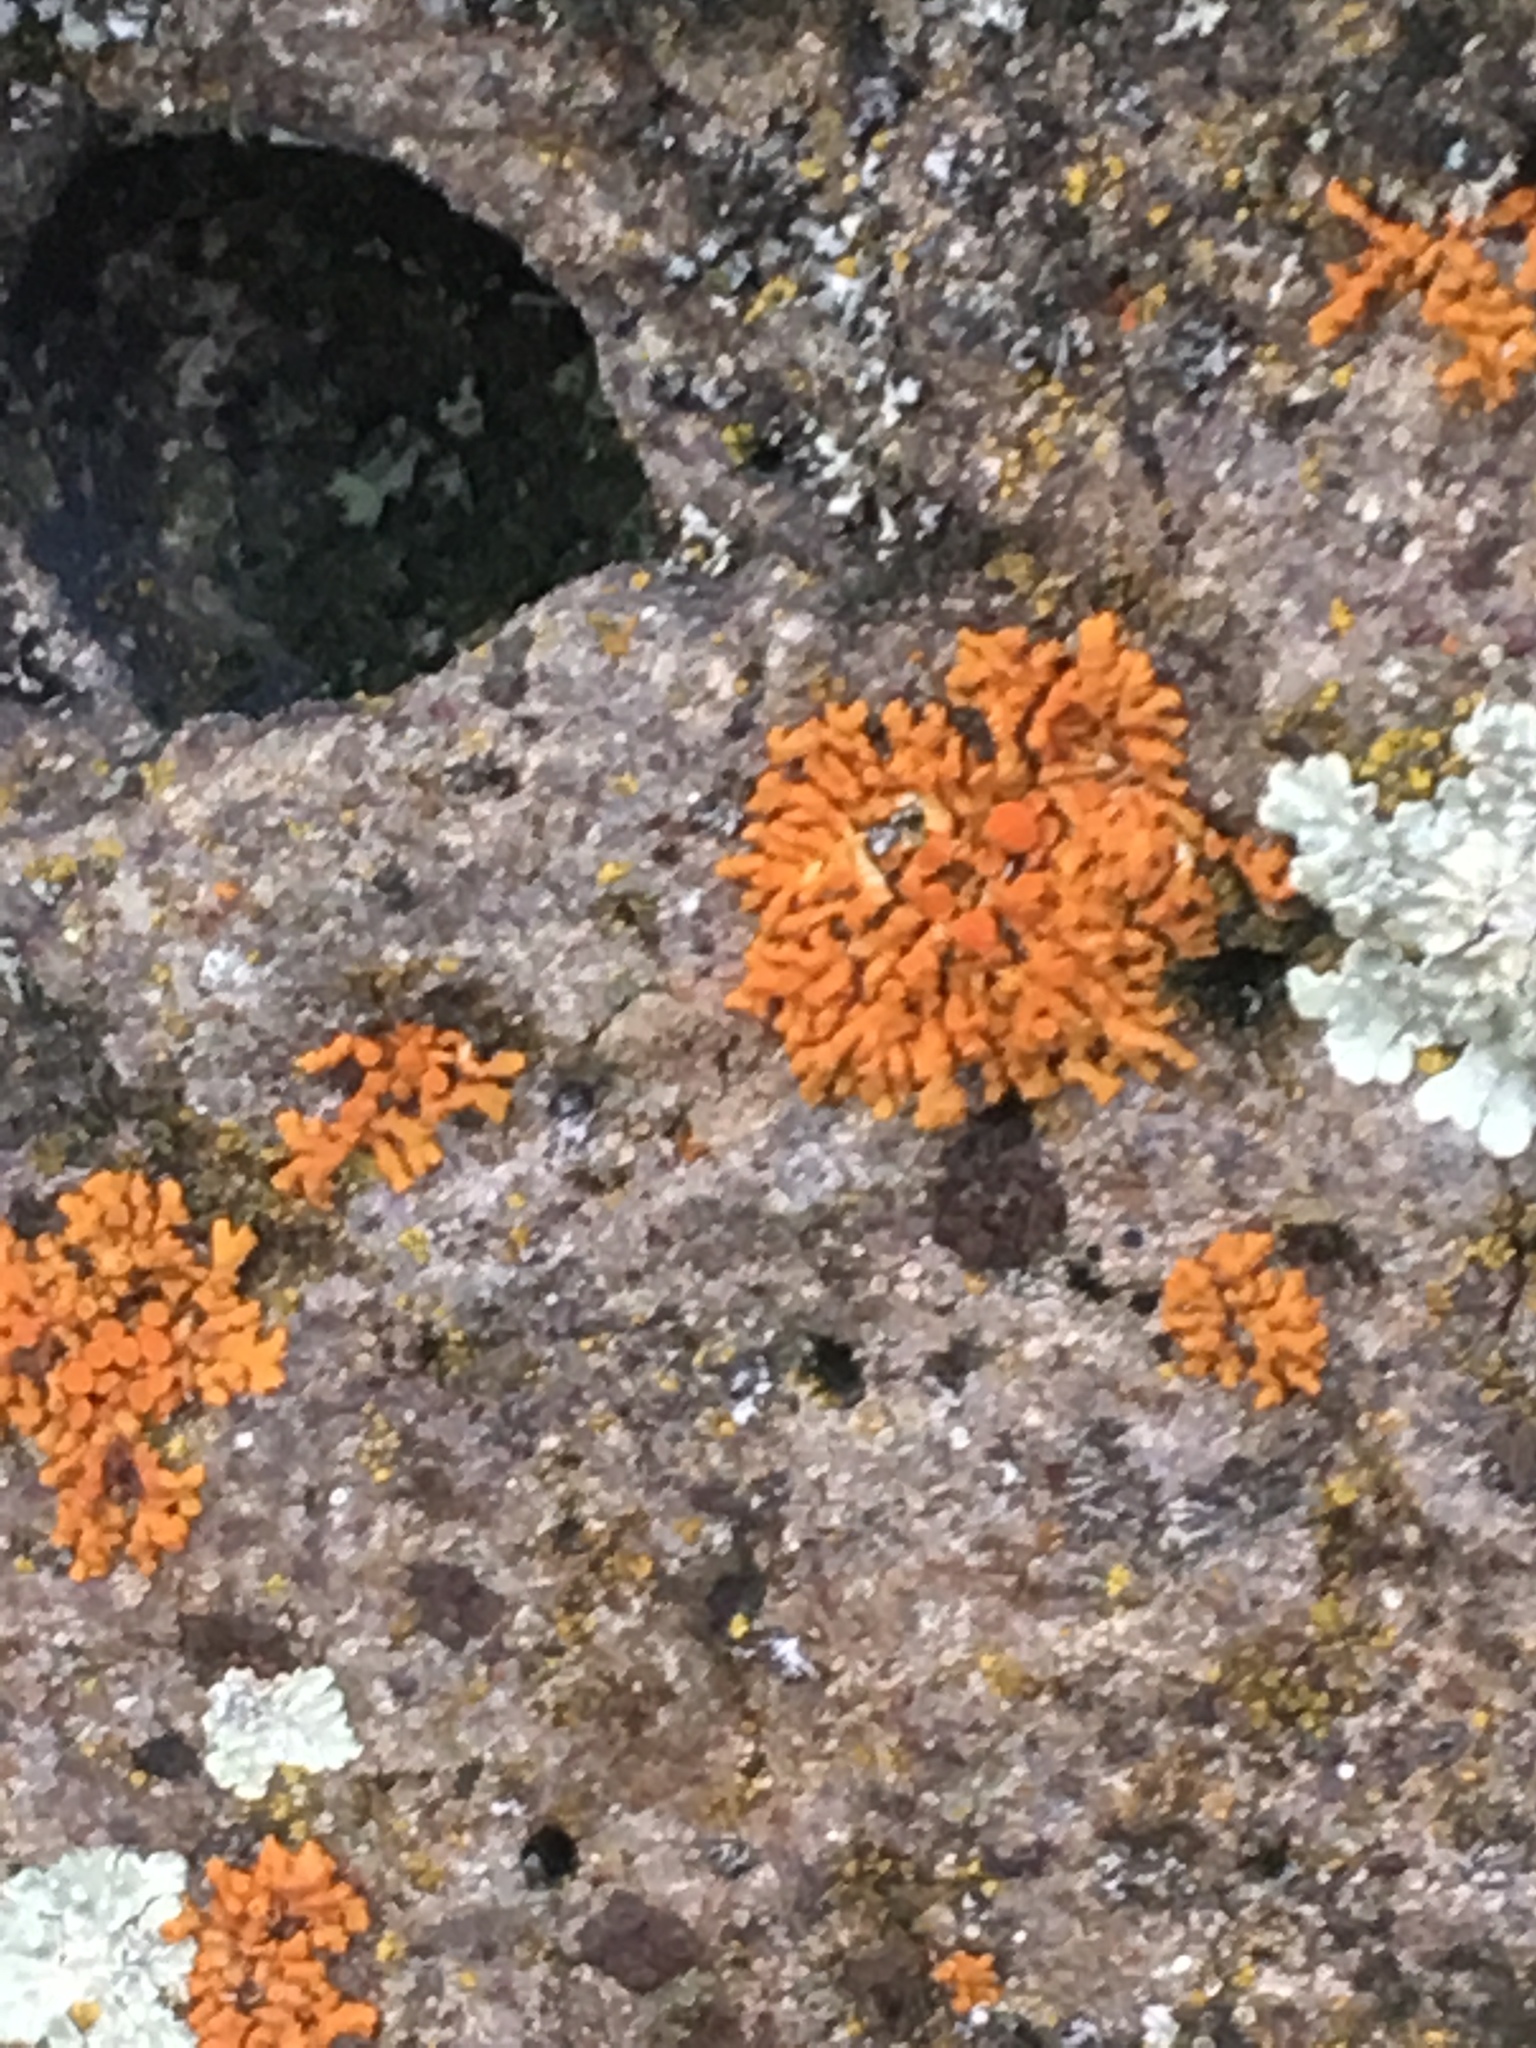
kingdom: Fungi
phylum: Ascomycota
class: Lecanoromycetes
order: Teloschistales
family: Teloschistaceae
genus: Xanthoria
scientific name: Xanthoria elegans
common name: Elegant sunburst lichen
